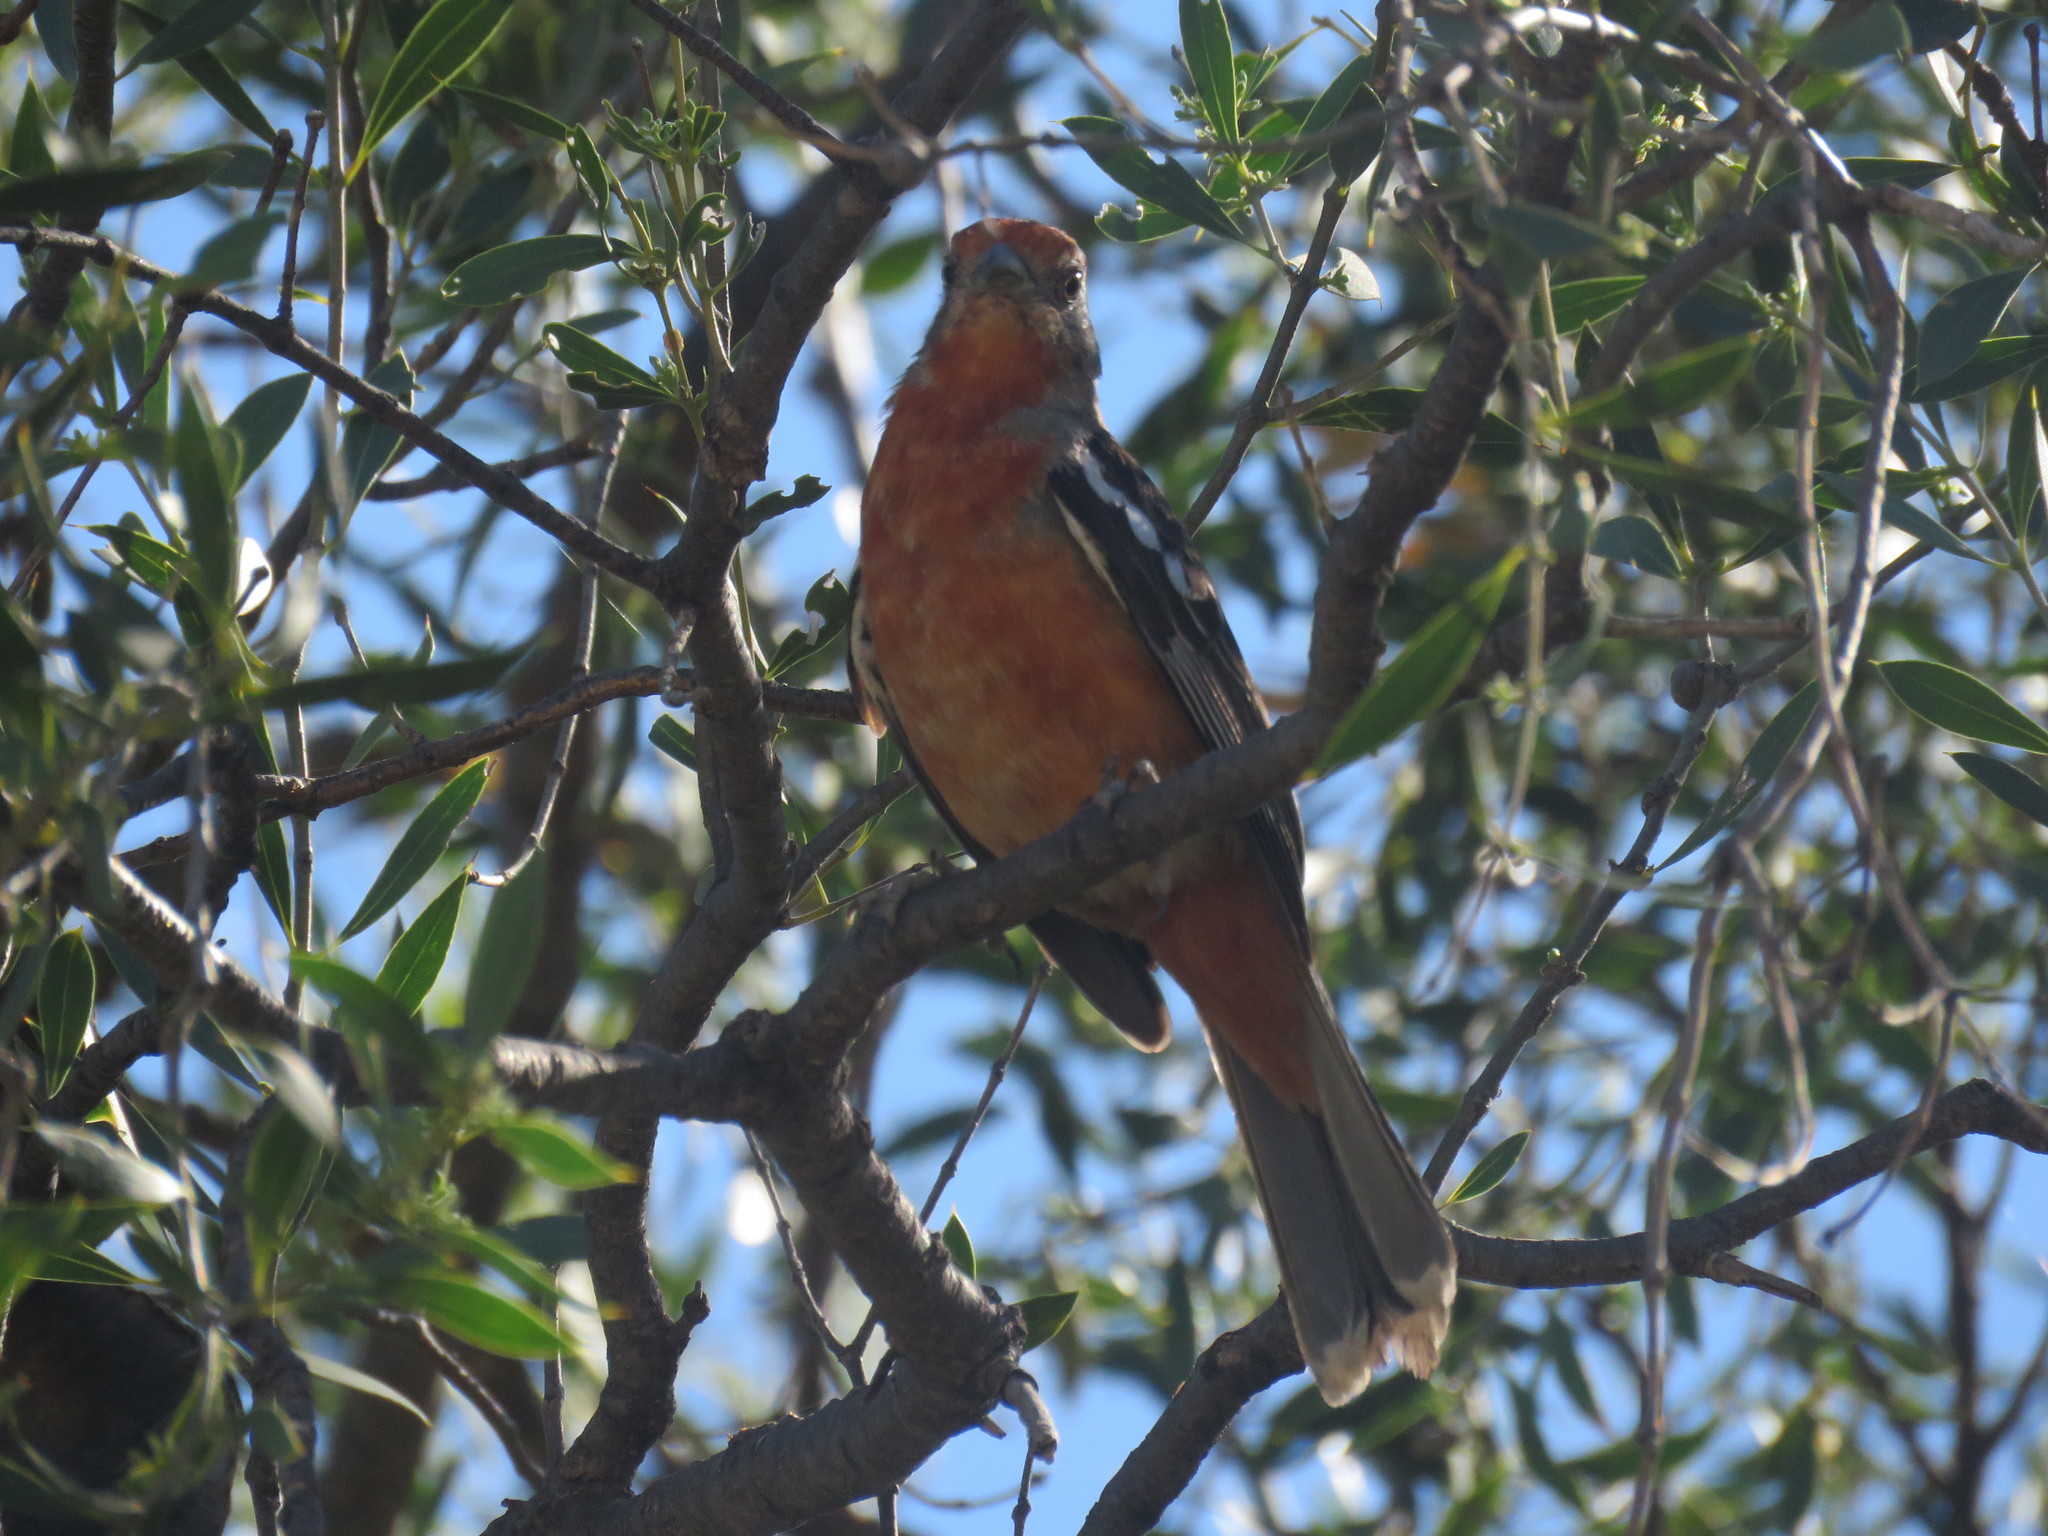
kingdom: Animalia
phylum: Chordata
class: Aves
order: Passeriformes
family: Cotingidae
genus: Phytotoma
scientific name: Phytotoma rutila
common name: White-tipped plantcutter
